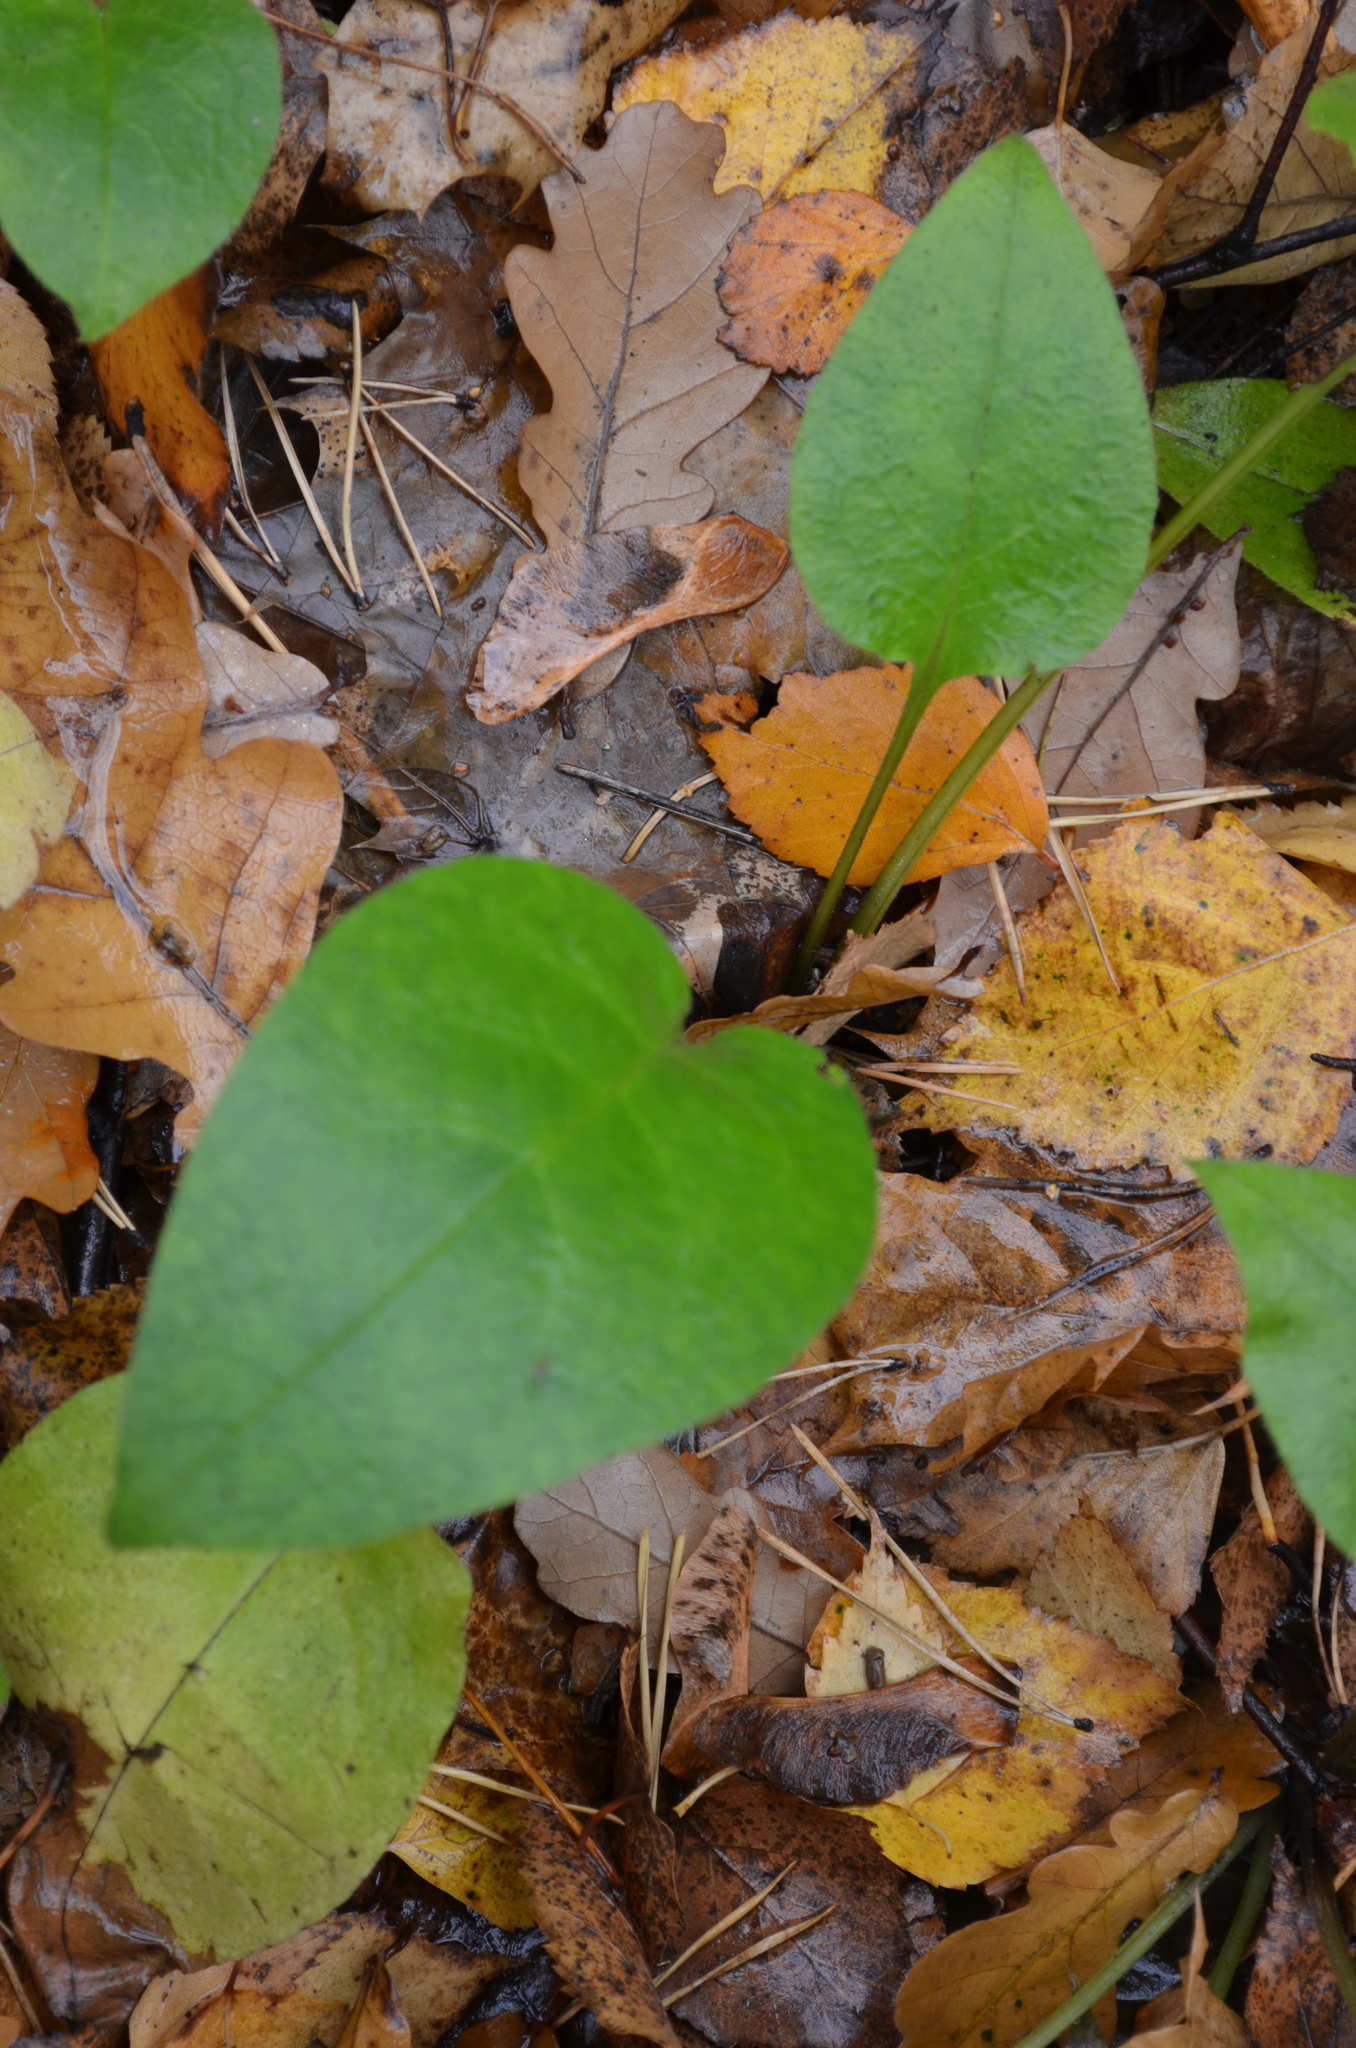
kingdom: Plantae
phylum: Tracheophyta
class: Magnoliopsida
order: Boraginales
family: Boraginaceae
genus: Pulmonaria
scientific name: Pulmonaria obscura
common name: Suffolk lungwort
